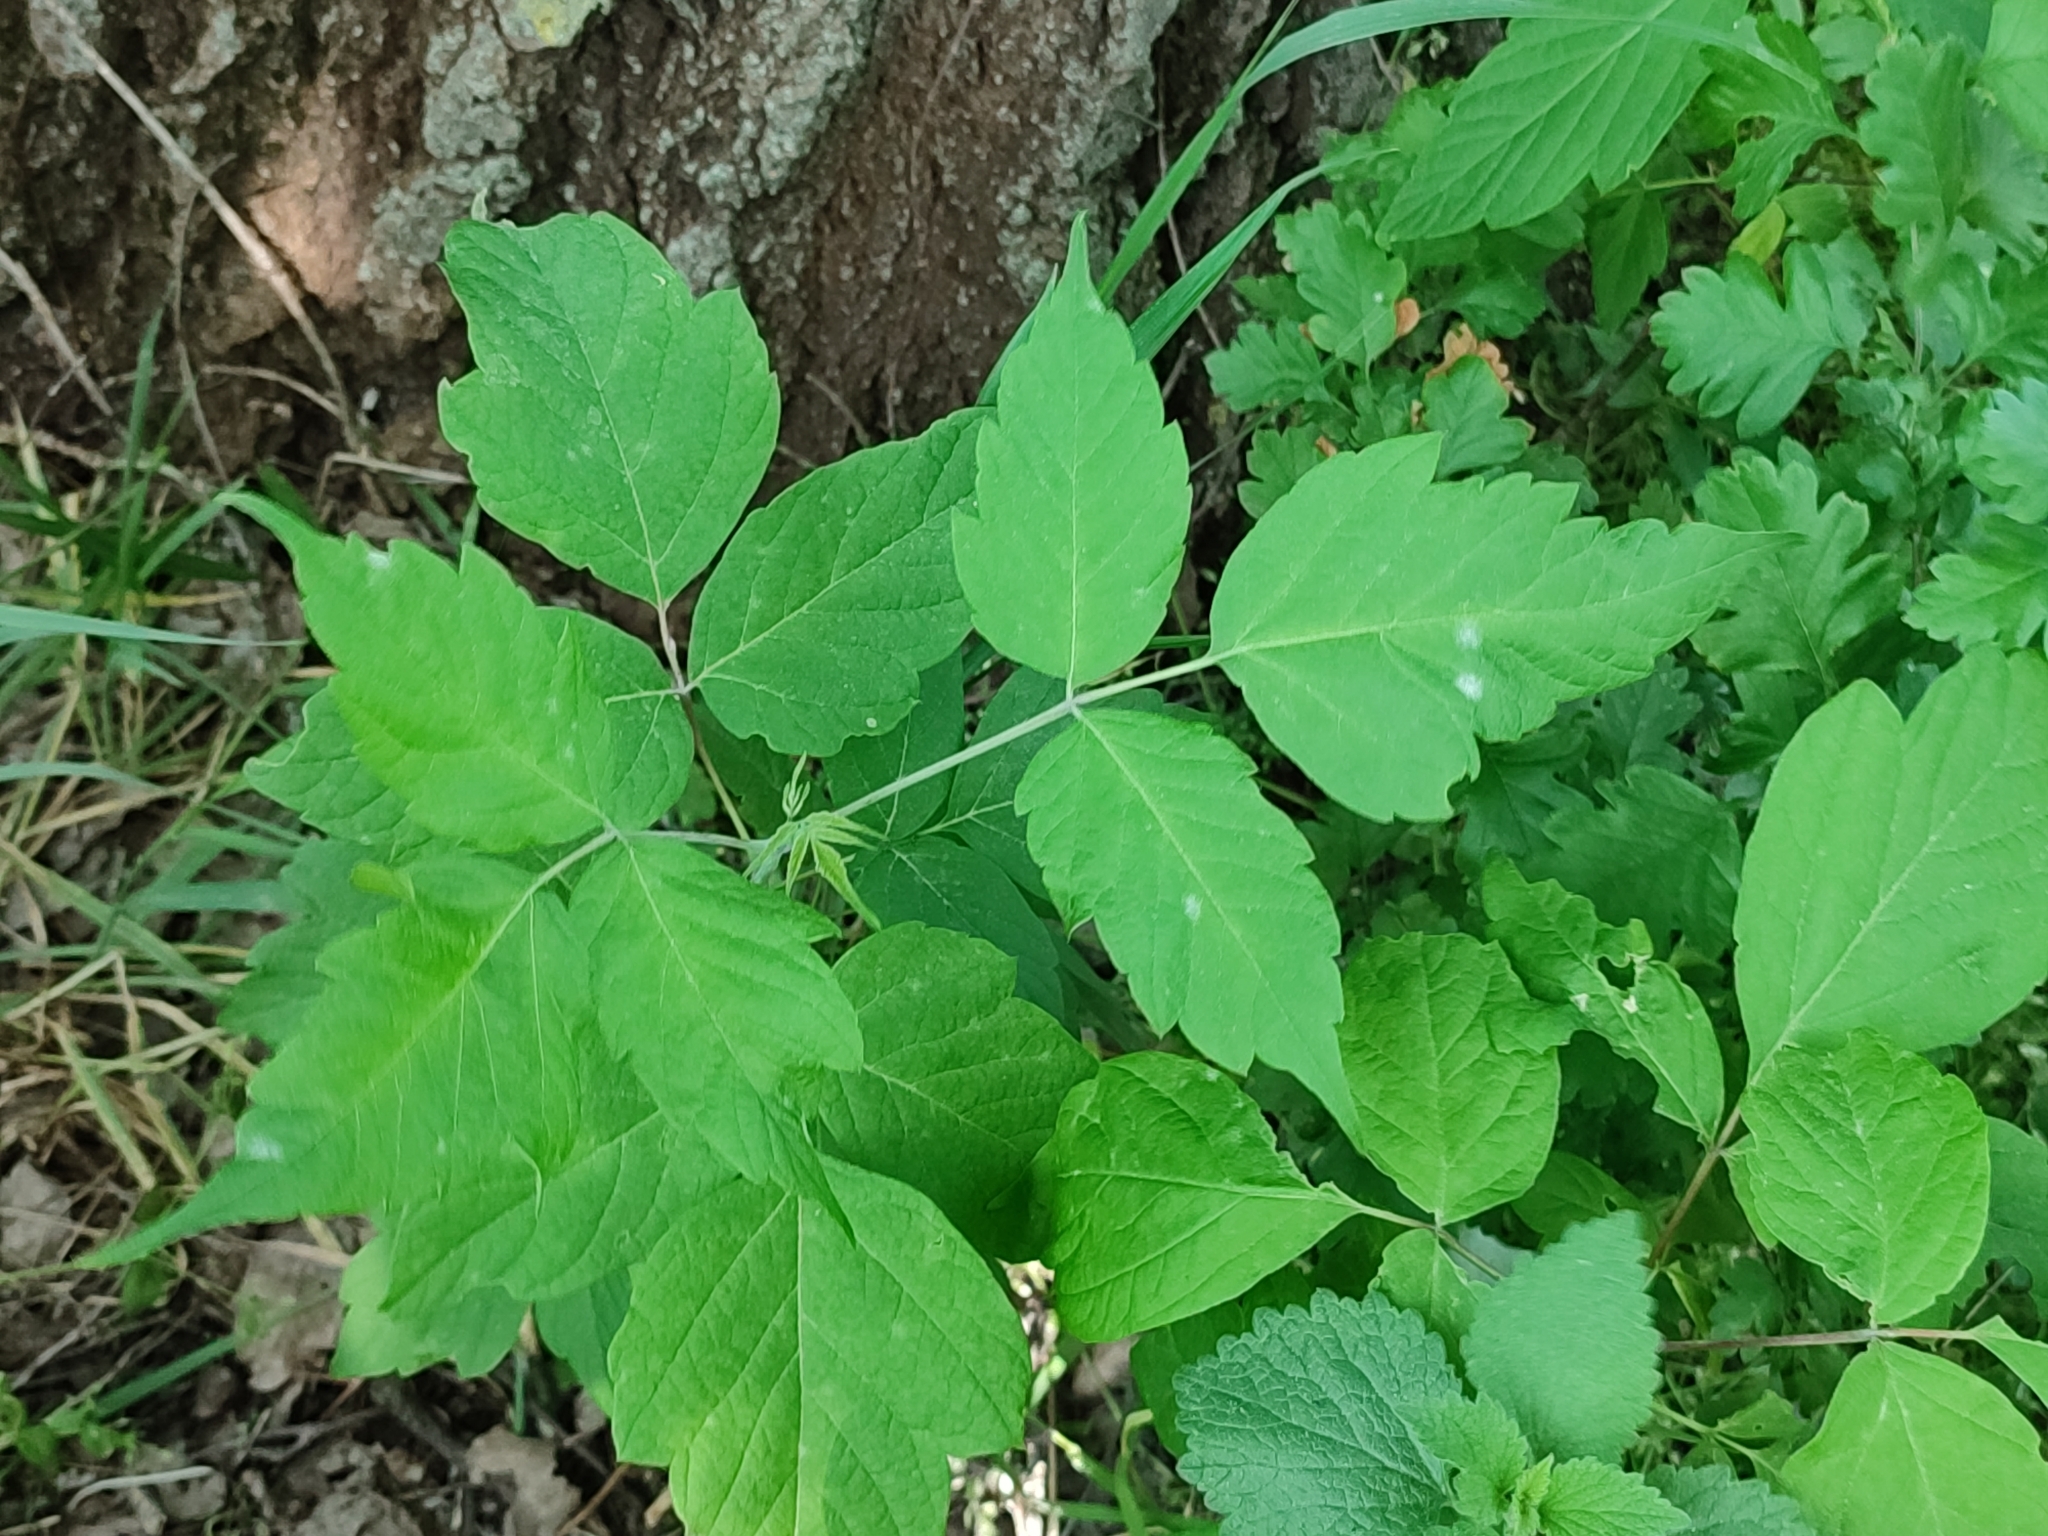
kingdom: Plantae
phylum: Tracheophyta
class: Magnoliopsida
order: Sapindales
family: Sapindaceae
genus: Acer
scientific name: Acer negundo
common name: Ashleaf maple
